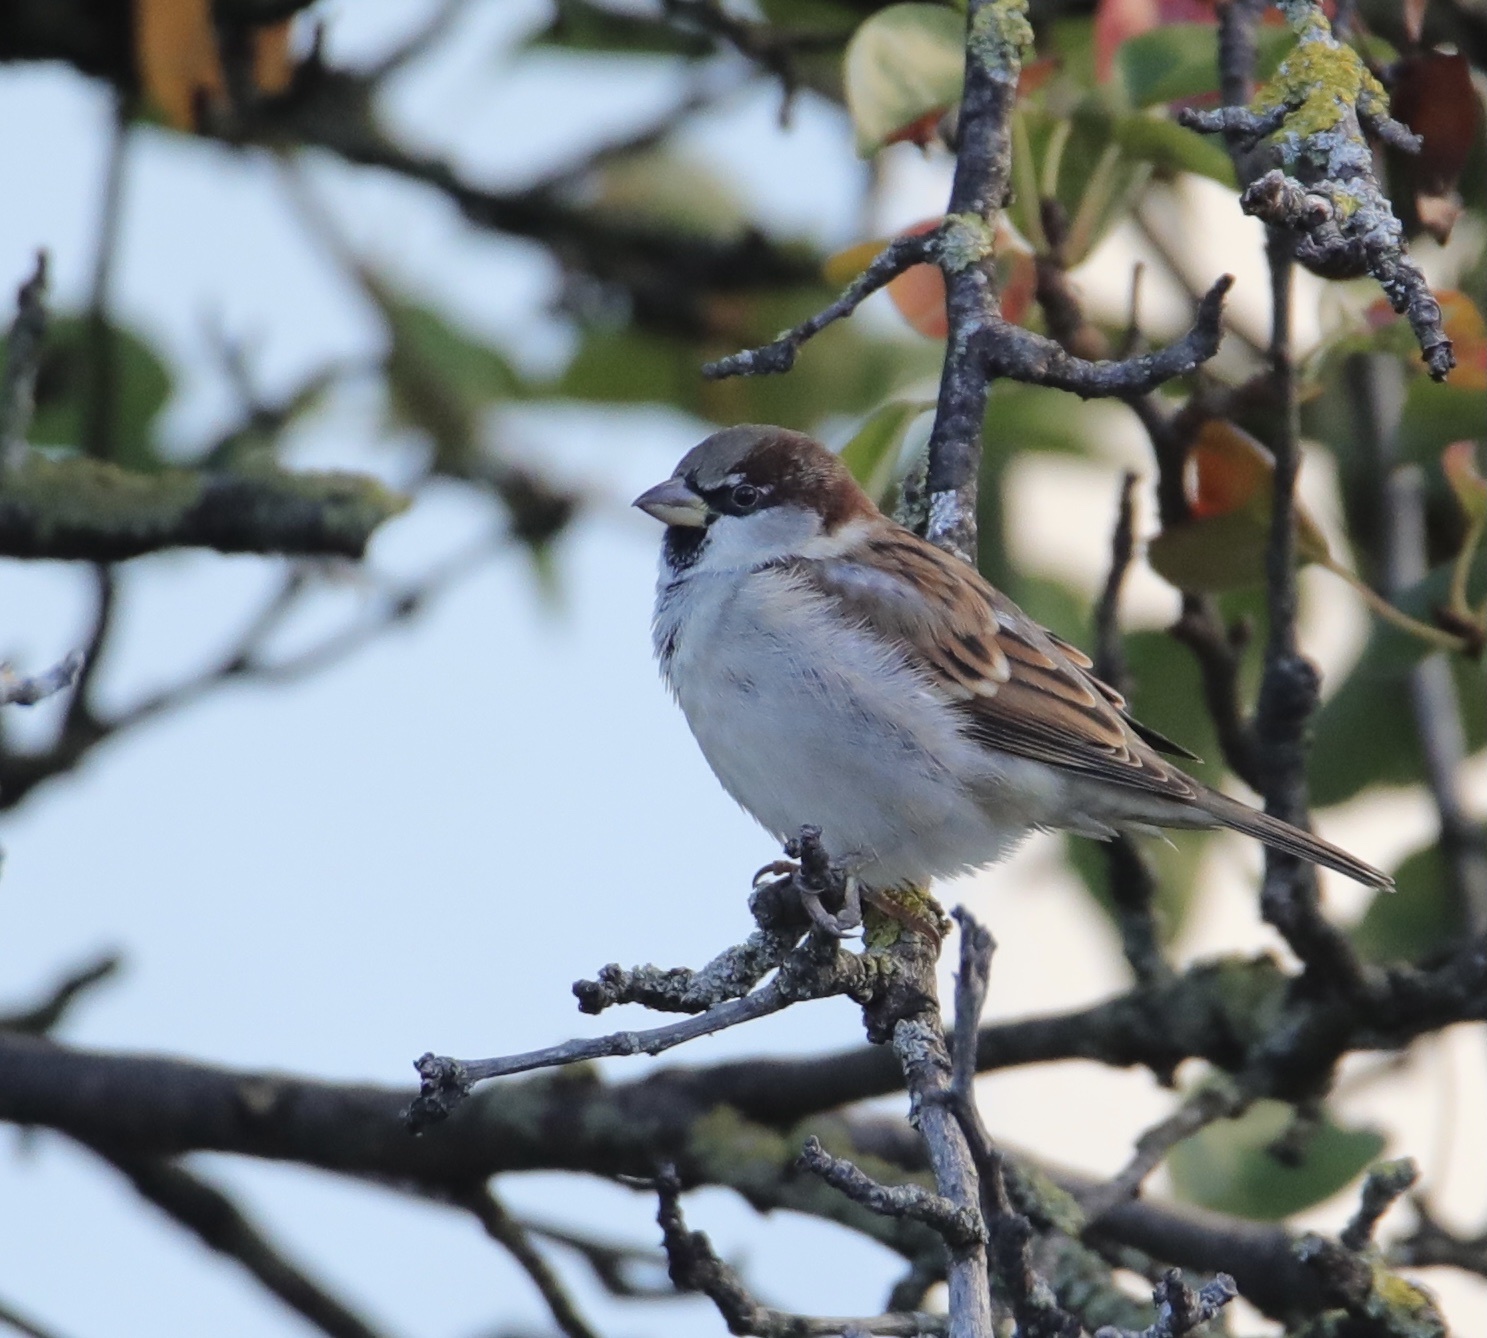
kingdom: Animalia
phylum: Chordata
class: Aves
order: Passeriformes
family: Passeridae
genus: Passer
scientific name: Passer domesticus
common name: House sparrow
